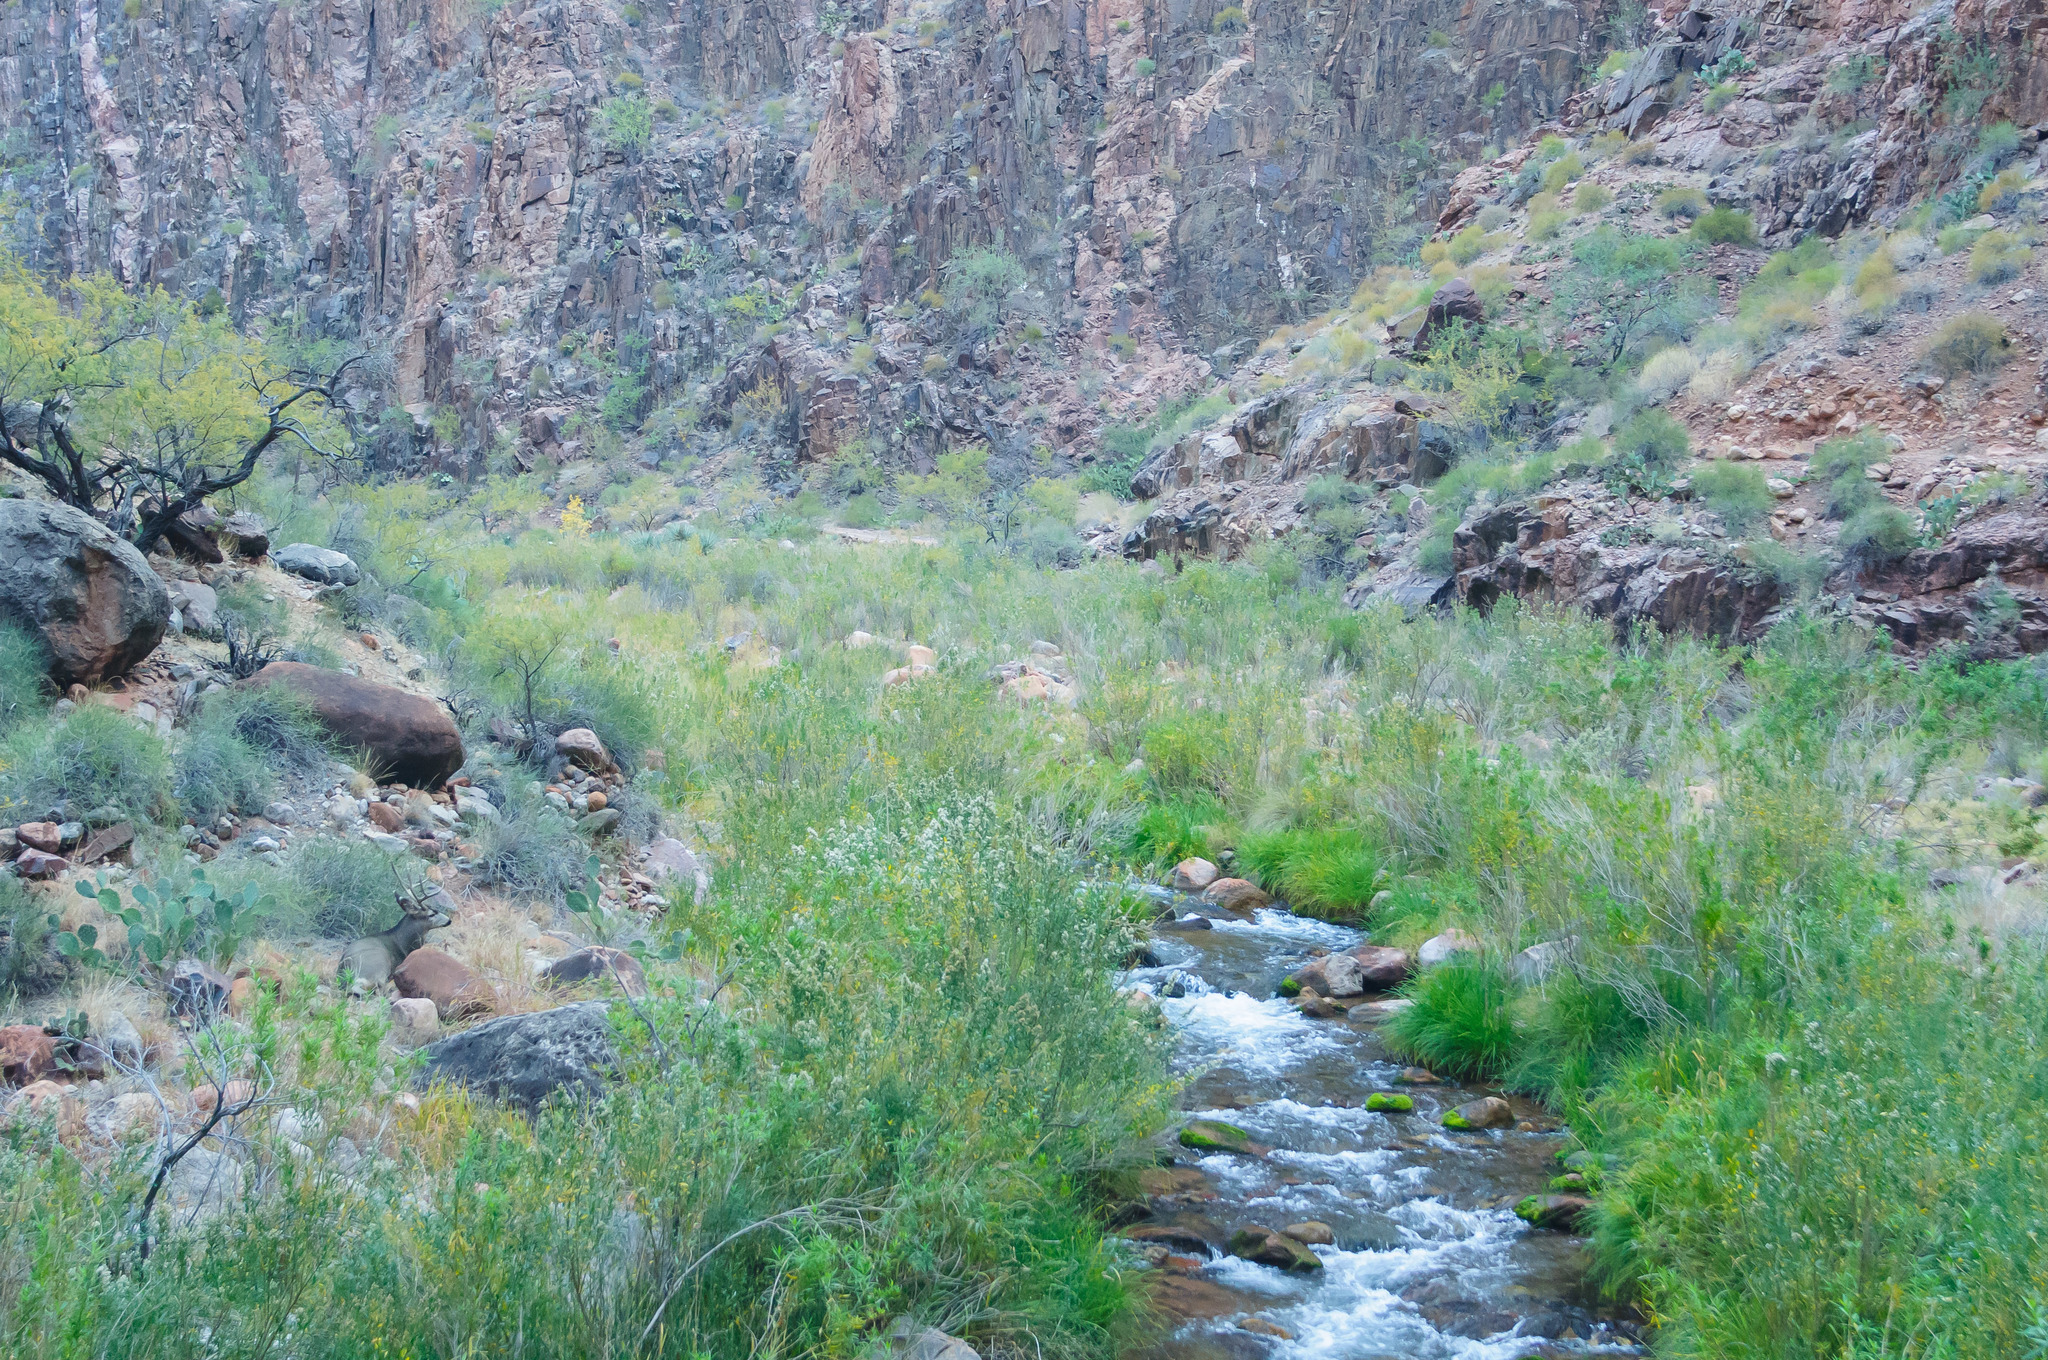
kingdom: Animalia
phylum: Chordata
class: Mammalia
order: Artiodactyla
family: Cervidae
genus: Odocoileus
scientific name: Odocoileus hemionus
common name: Mule deer
